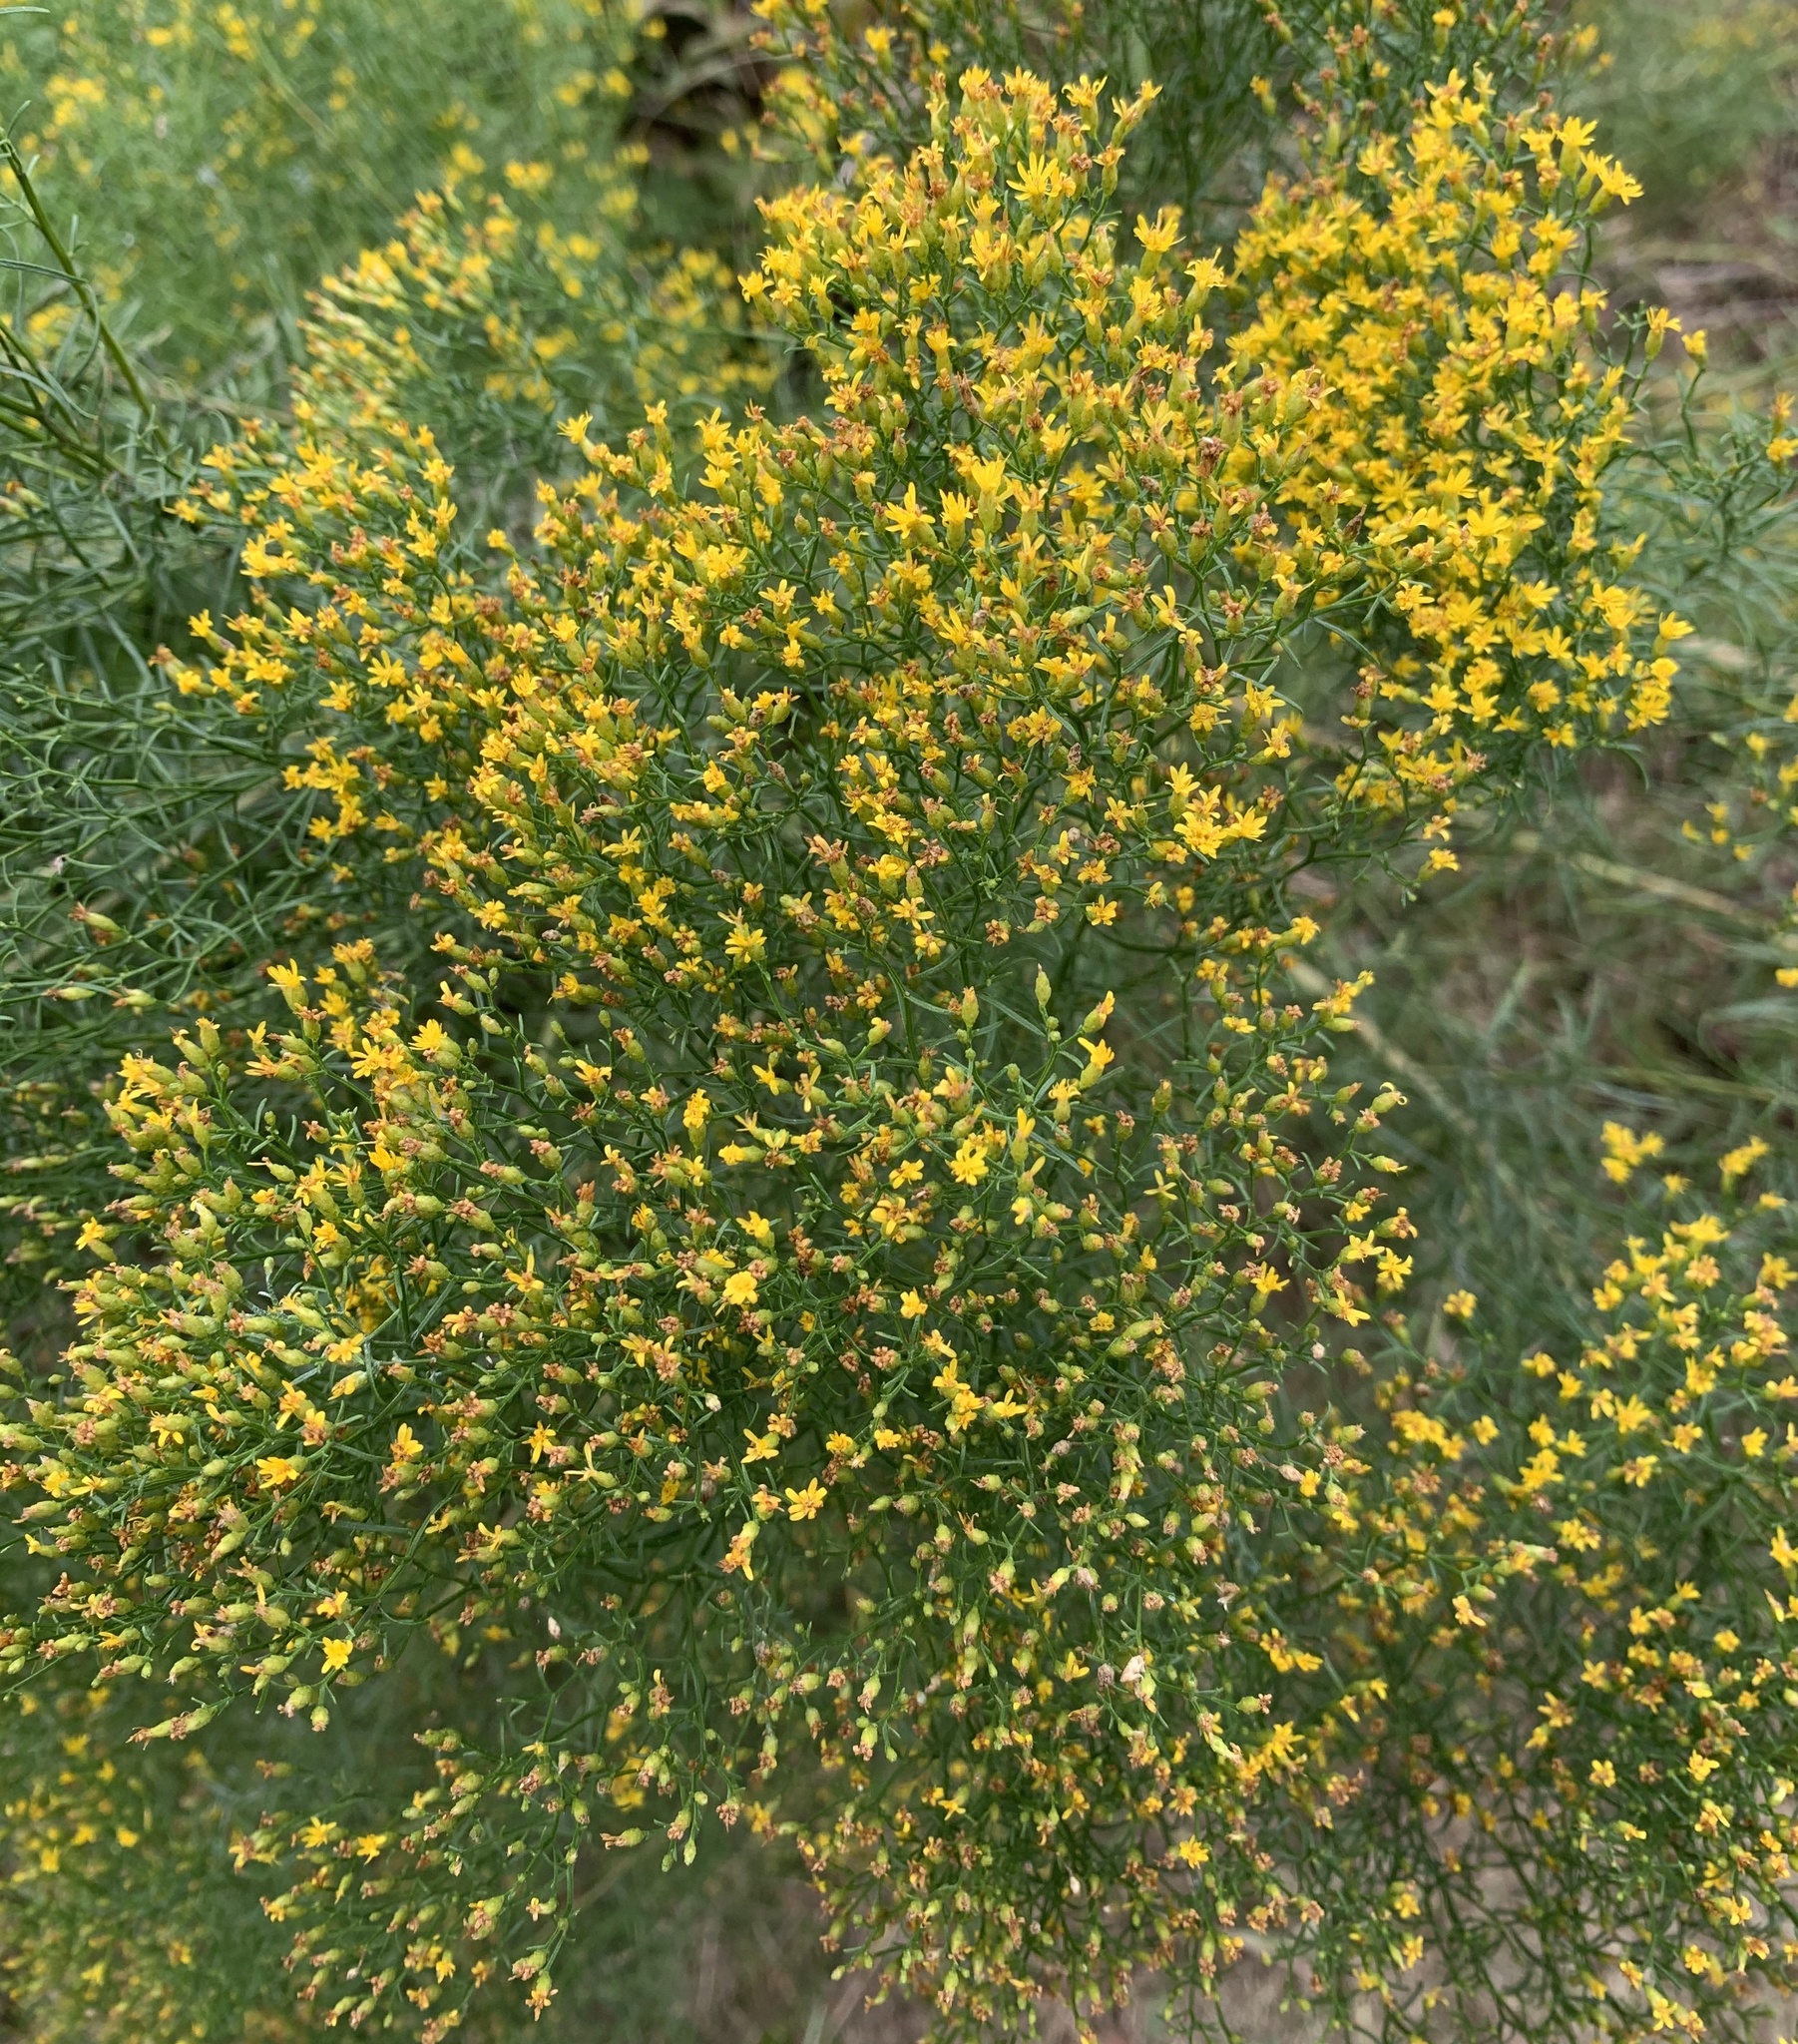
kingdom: Plantae
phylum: Tracheophyta
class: Magnoliopsida
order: Asterales
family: Asteraceae
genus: Euthamia
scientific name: Euthamia caroliniana
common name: Coastal plain goldentop
